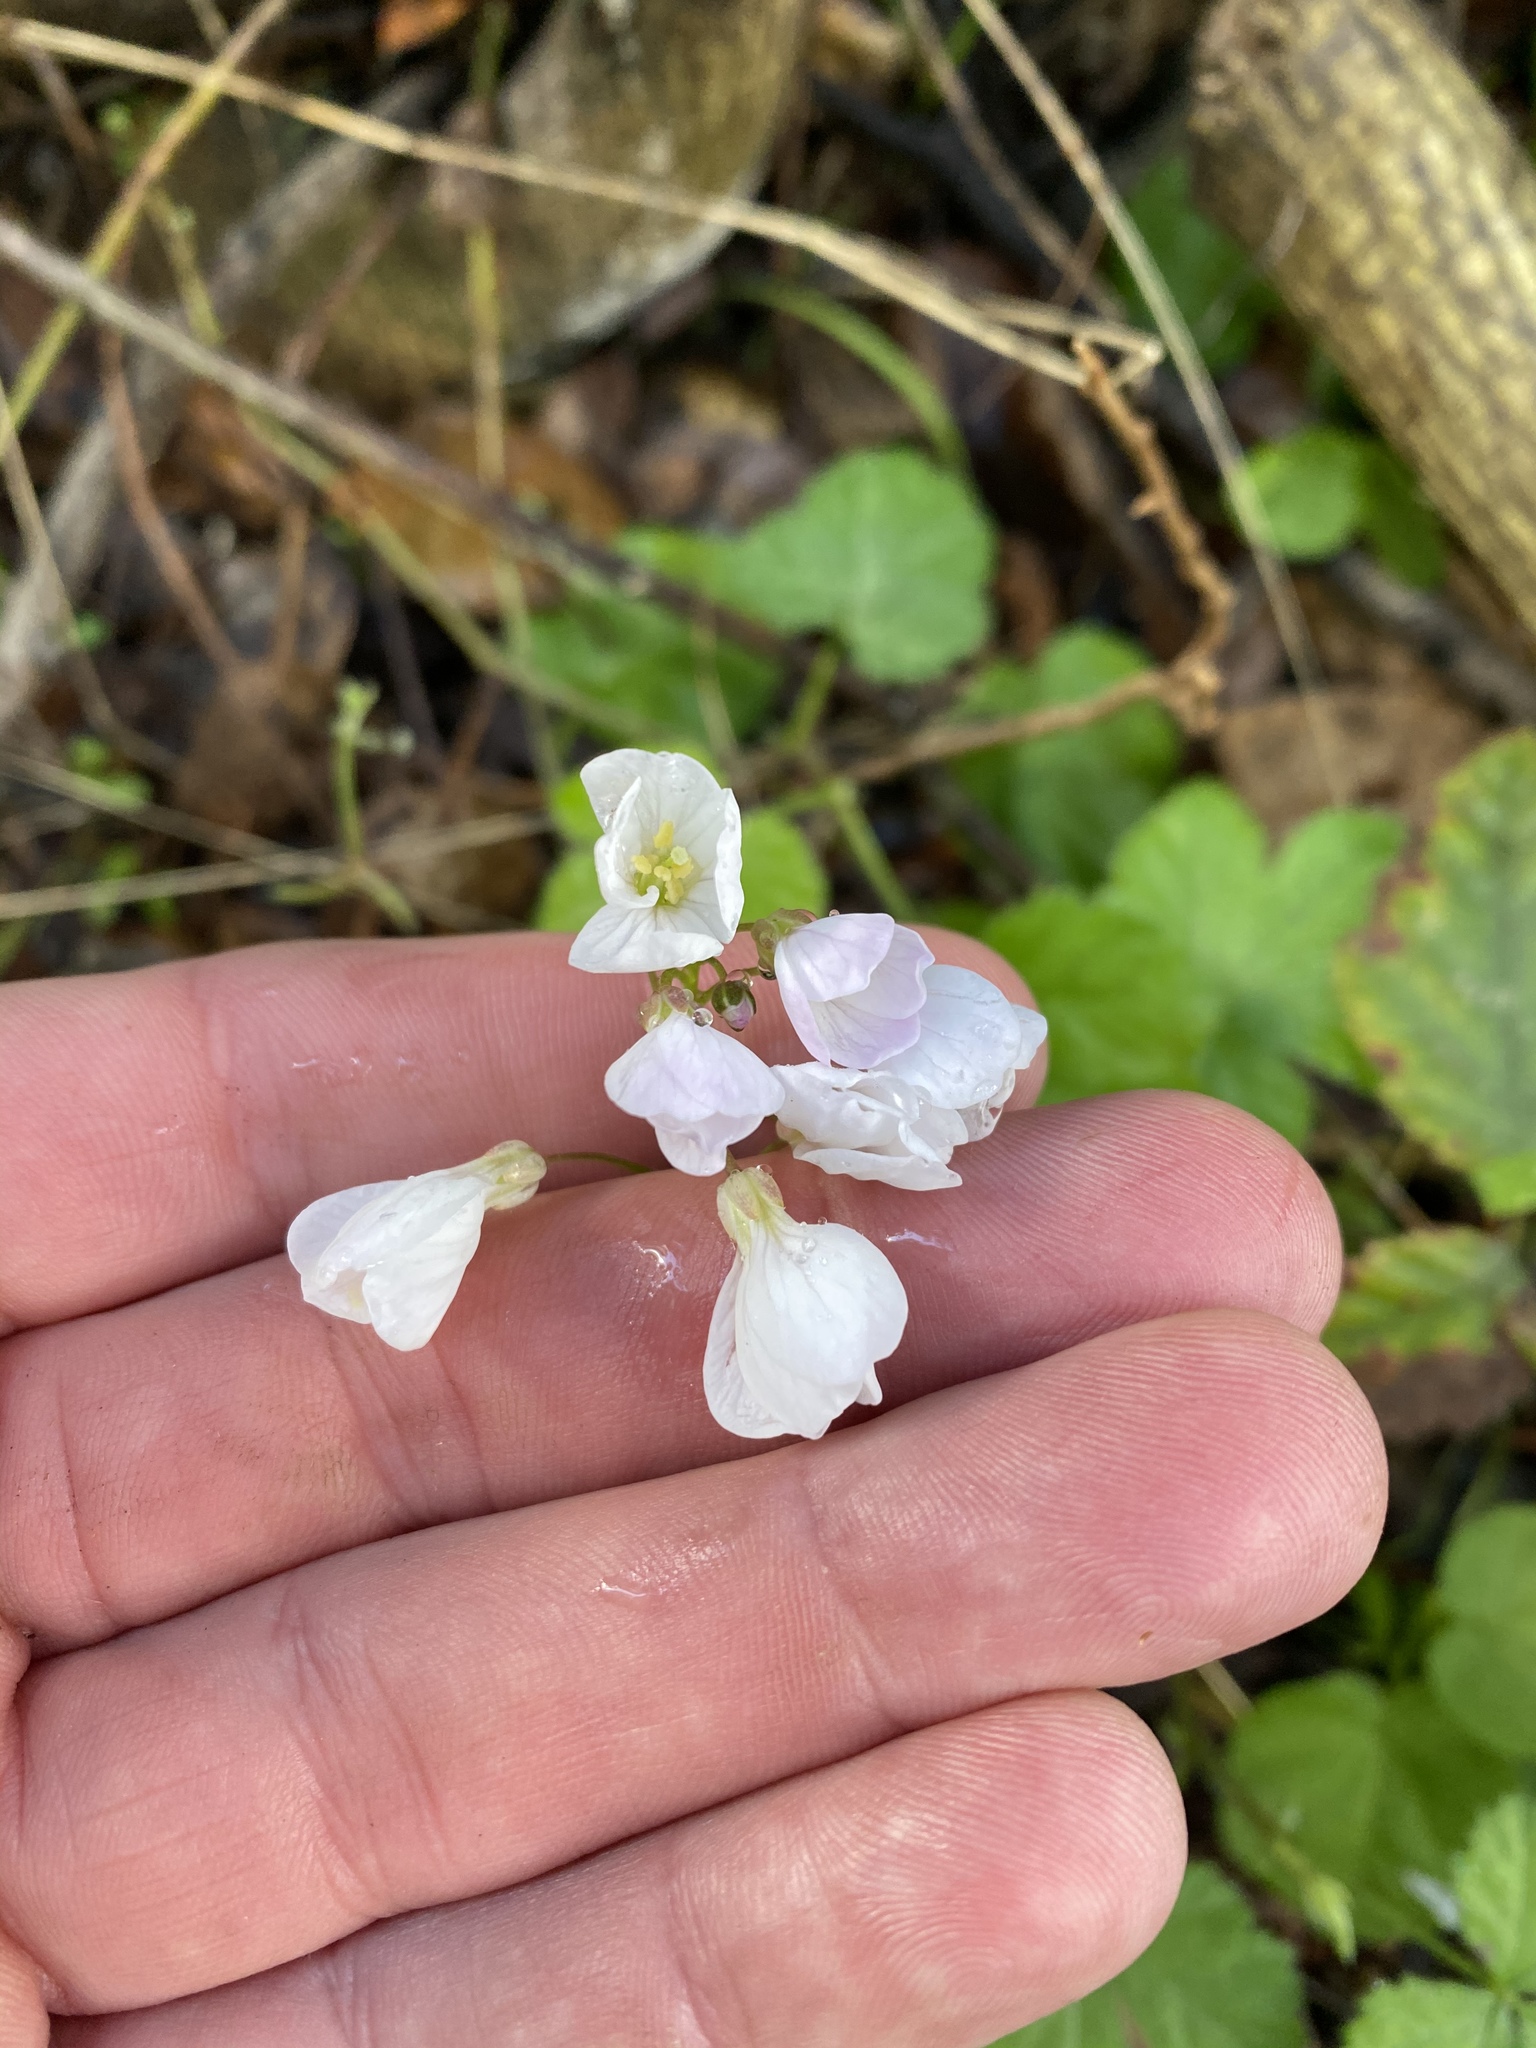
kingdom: Plantae
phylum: Tracheophyta
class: Magnoliopsida
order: Brassicales
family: Brassicaceae
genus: Cardamine
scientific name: Cardamine californica
